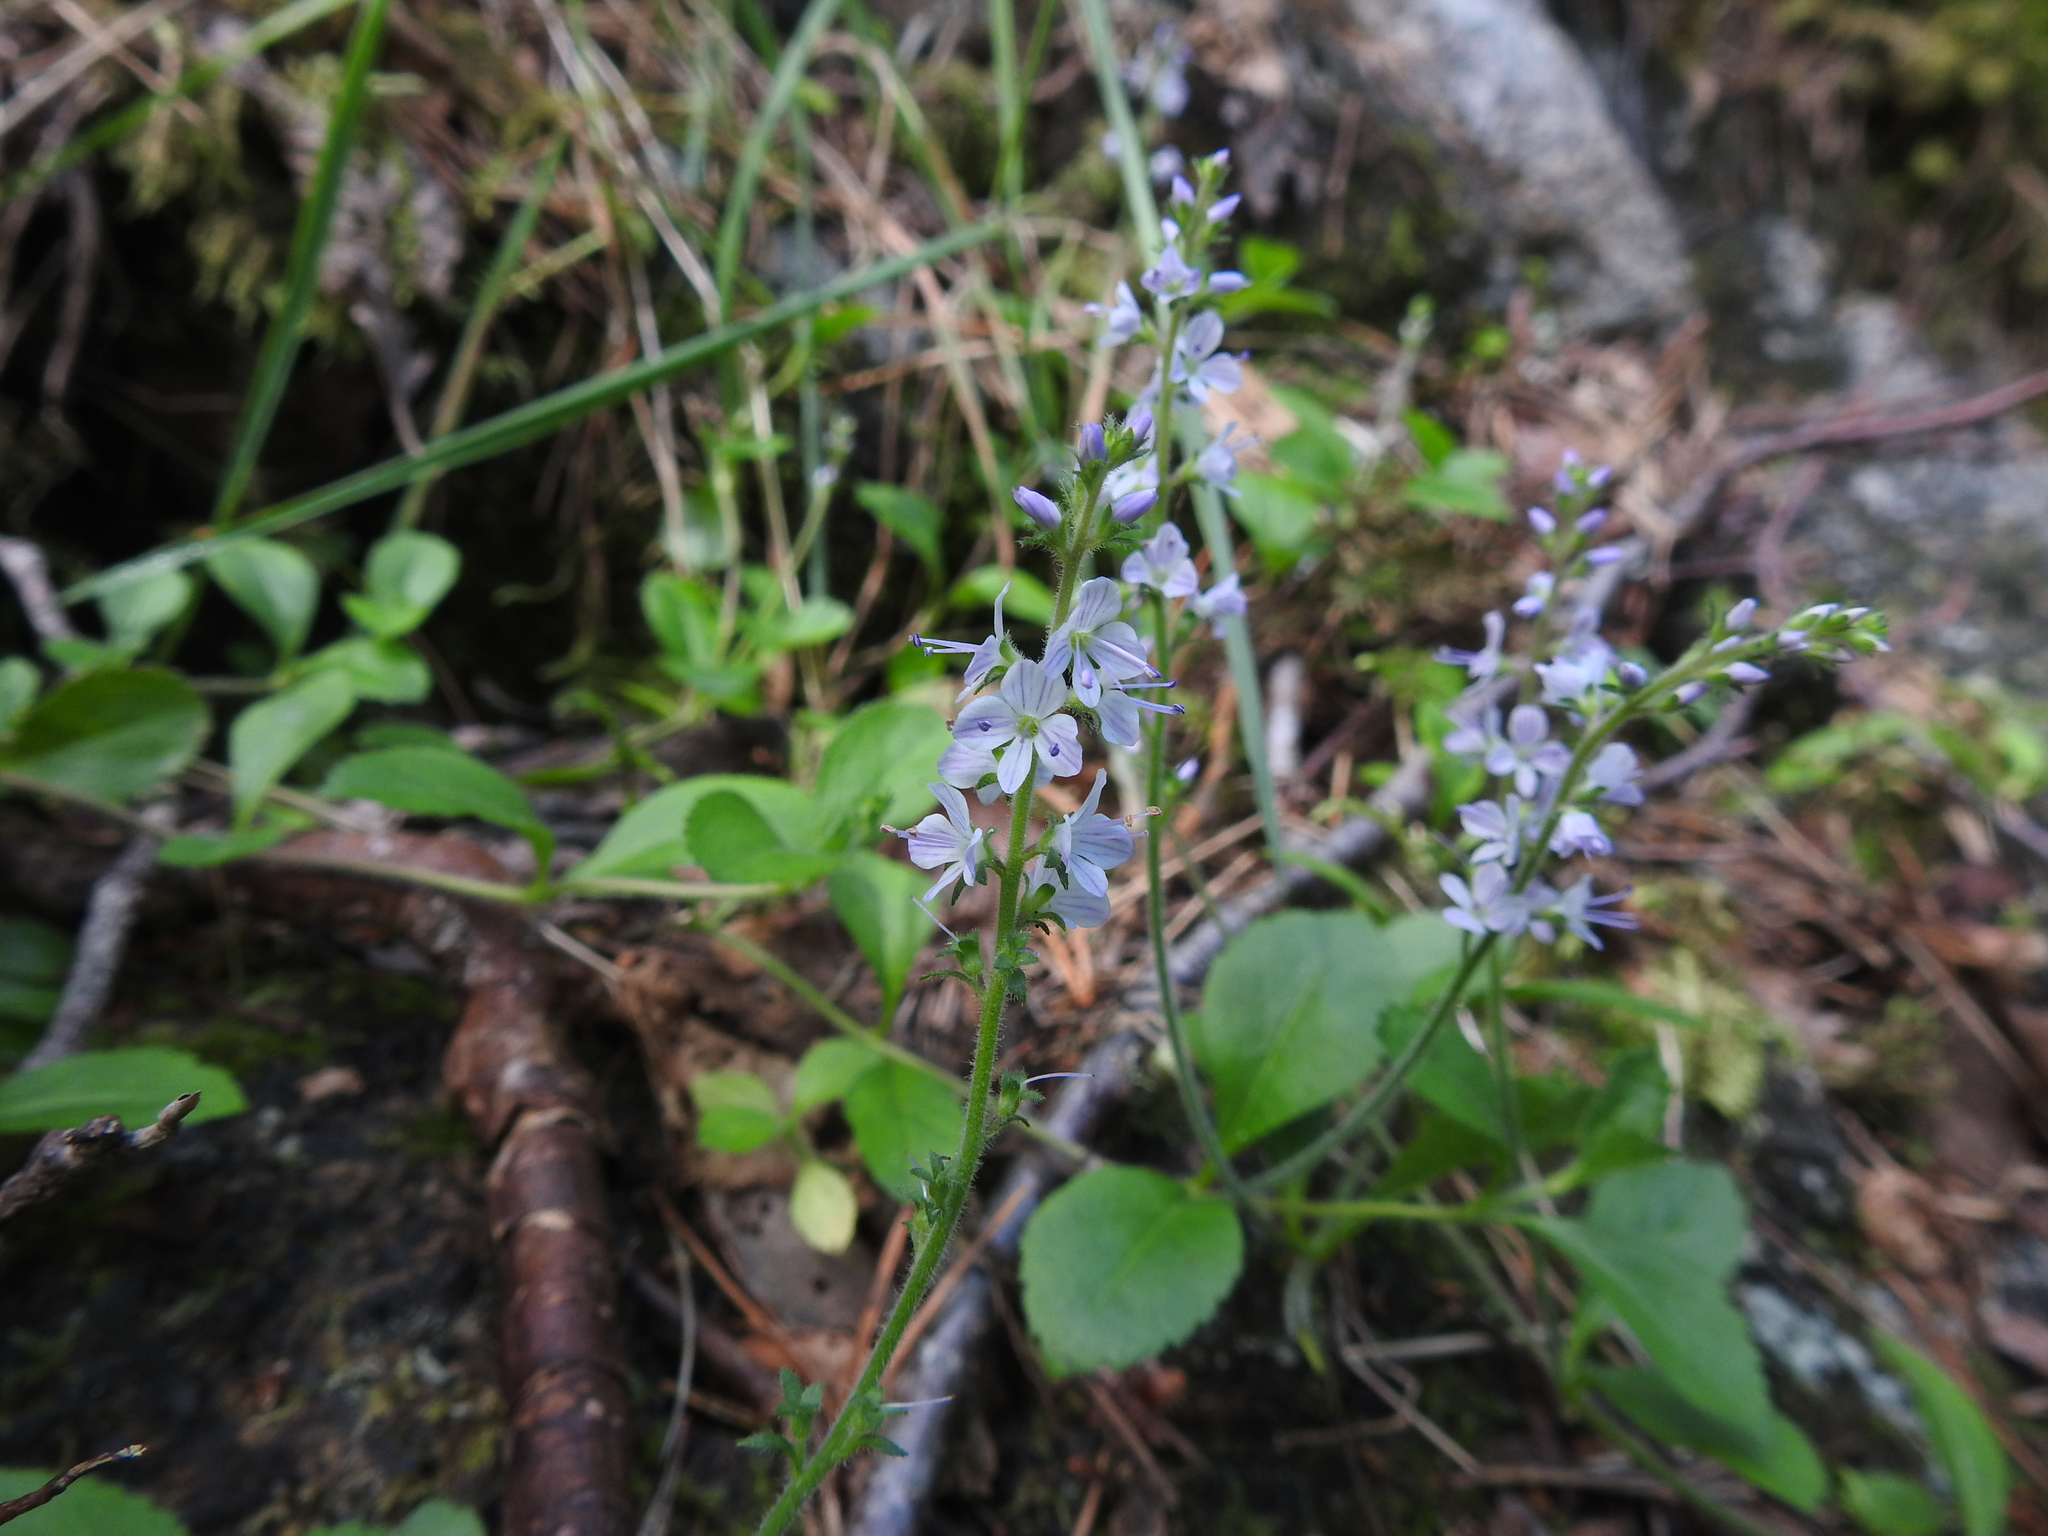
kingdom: Plantae
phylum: Tracheophyta
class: Magnoliopsida
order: Lamiales
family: Plantaginaceae
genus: Veronica
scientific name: Veronica officinalis
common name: Common speedwell
